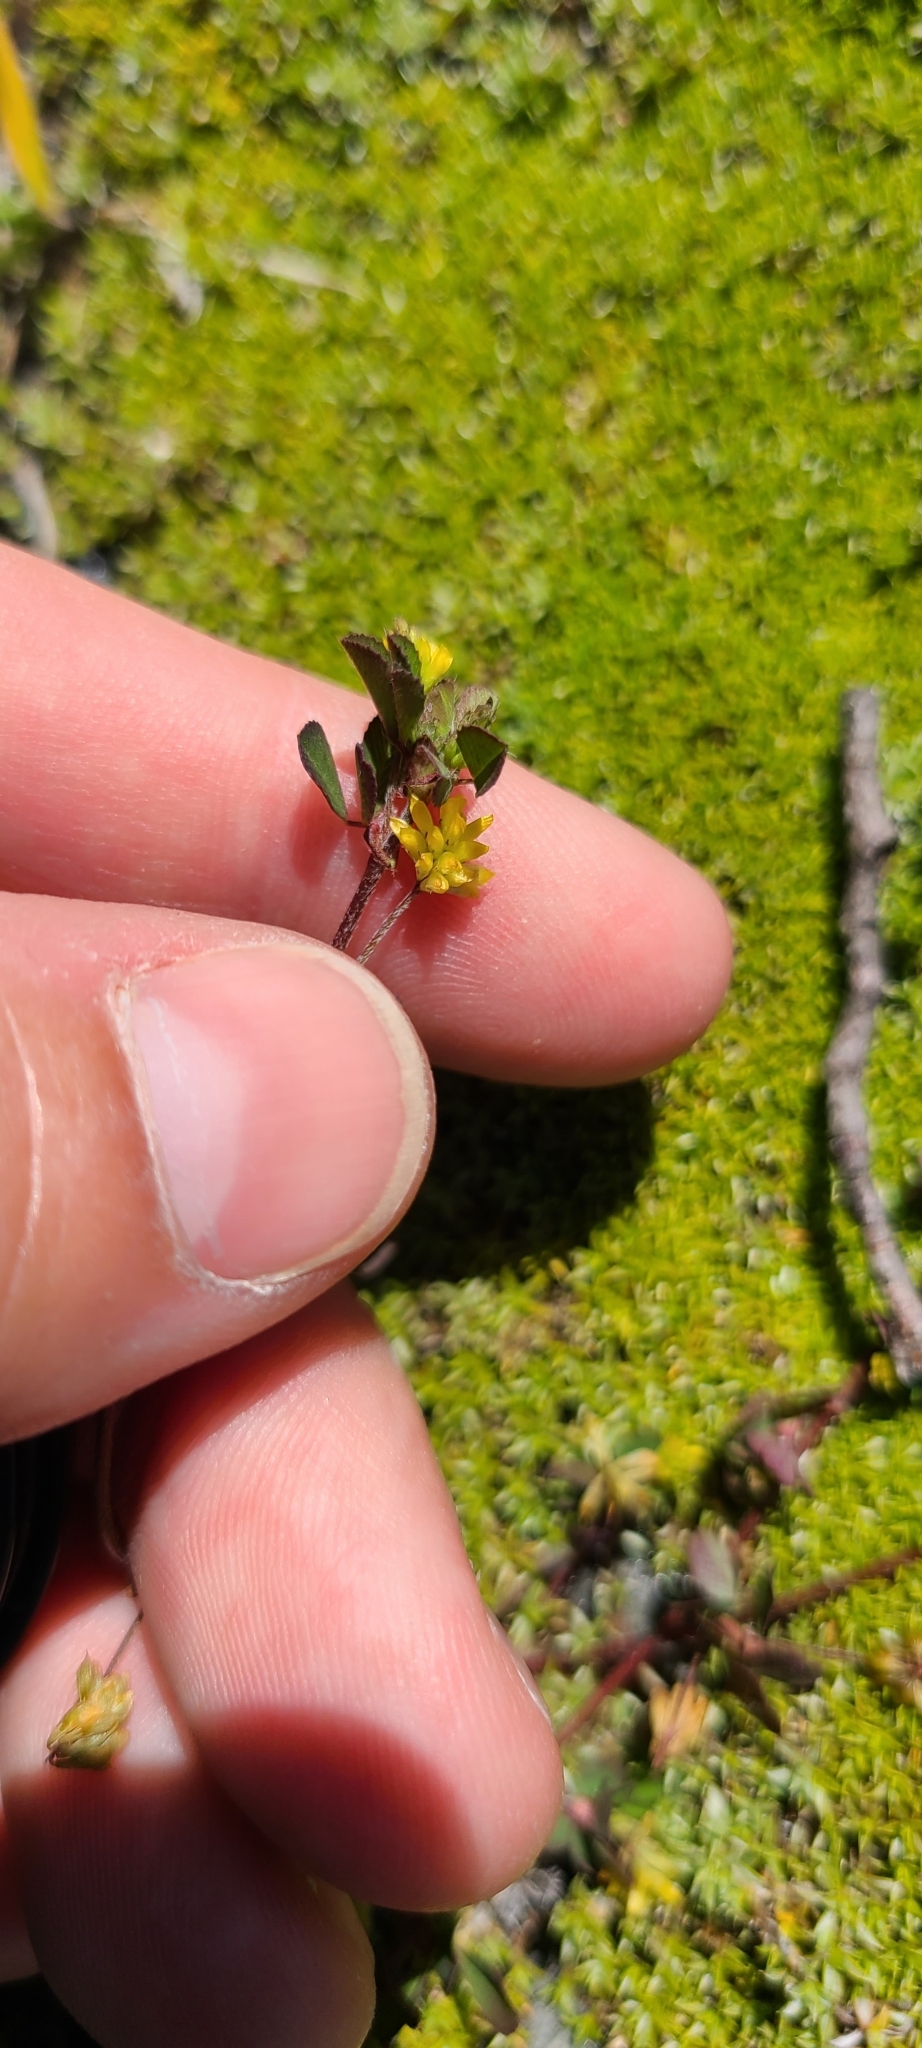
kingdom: Plantae
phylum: Tracheophyta
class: Magnoliopsida
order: Fabales
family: Fabaceae
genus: Trifolium
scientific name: Trifolium dubium
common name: Suckling clover
